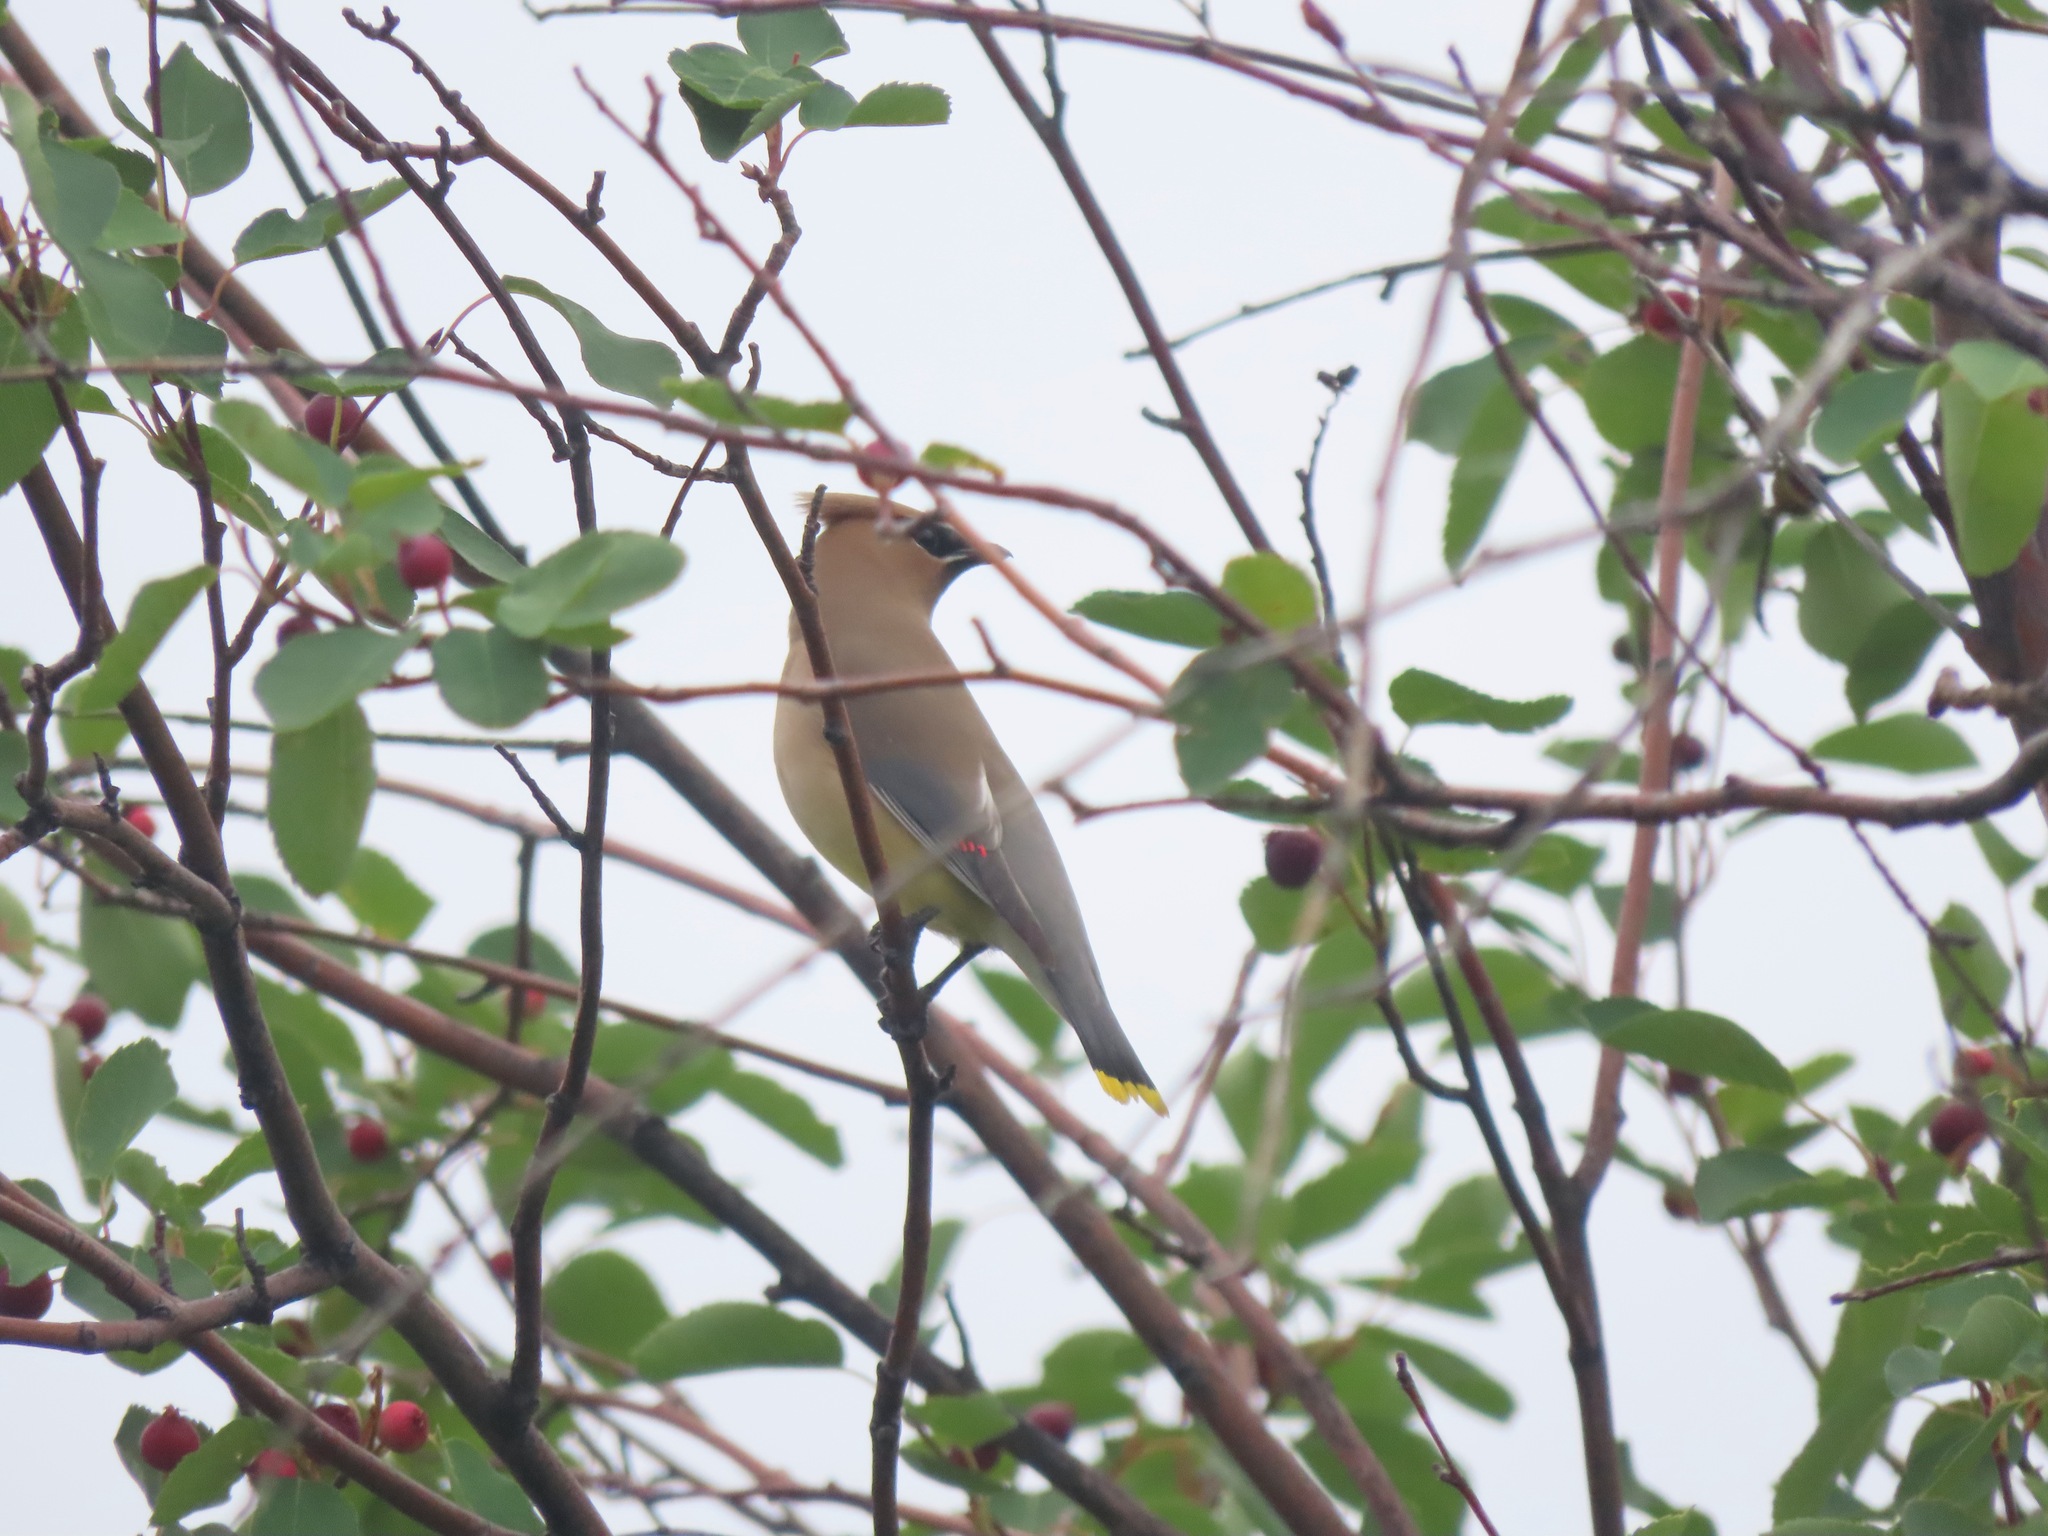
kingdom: Animalia
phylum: Chordata
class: Aves
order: Passeriformes
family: Bombycillidae
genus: Bombycilla
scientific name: Bombycilla cedrorum
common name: Cedar waxwing
